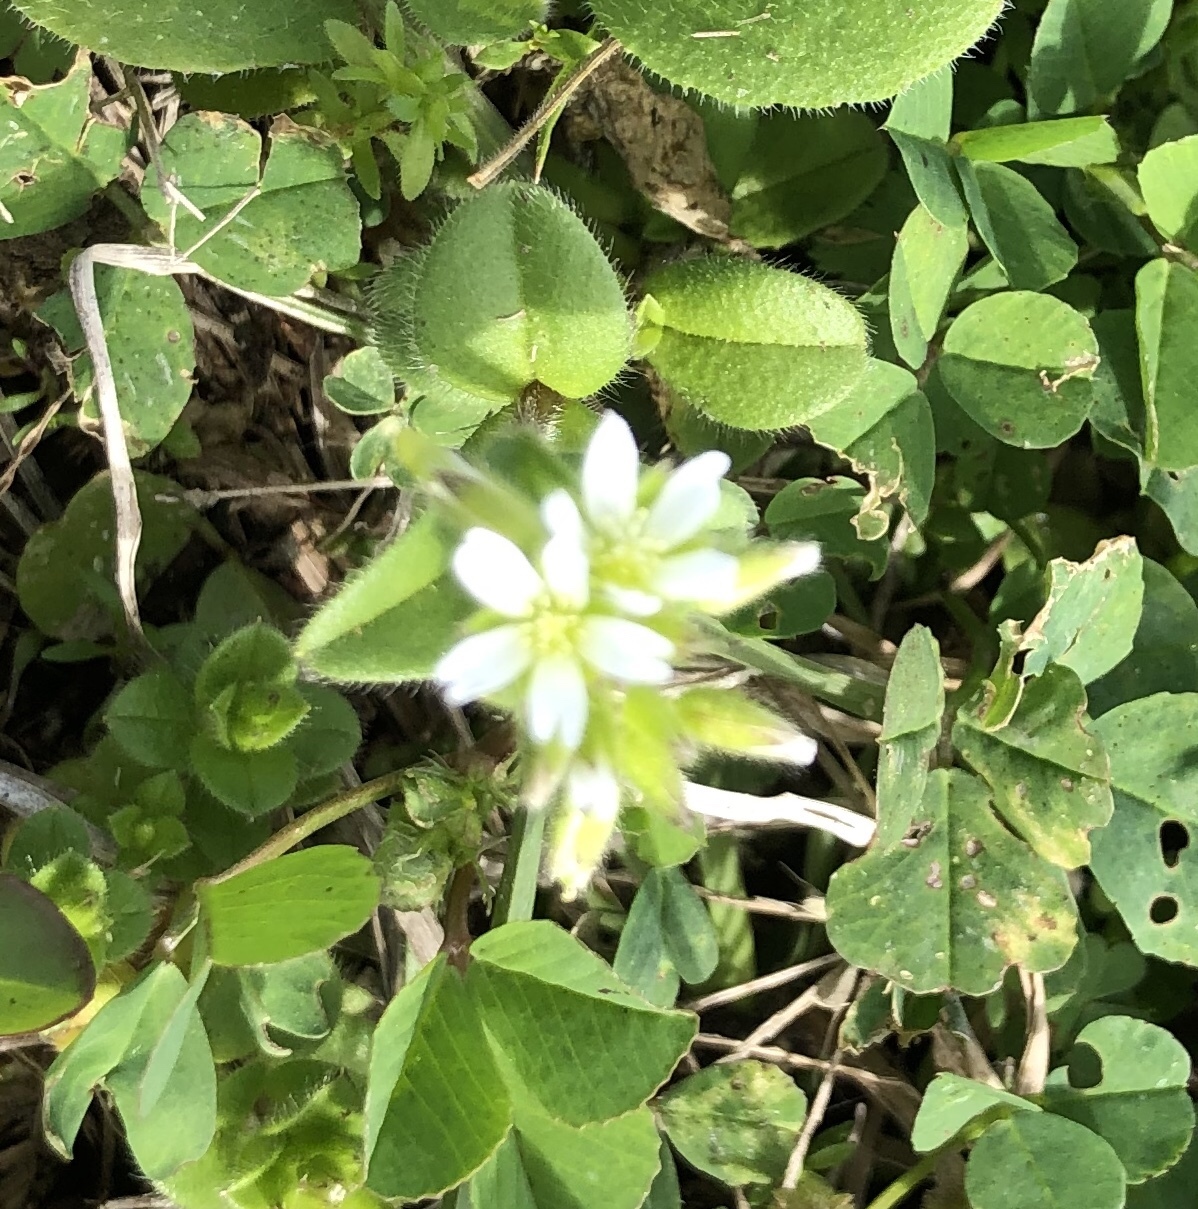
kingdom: Plantae
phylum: Tracheophyta
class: Magnoliopsida
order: Caryophyllales
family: Caryophyllaceae
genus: Cerastium
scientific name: Cerastium glomeratum
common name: Sticky chickweed
